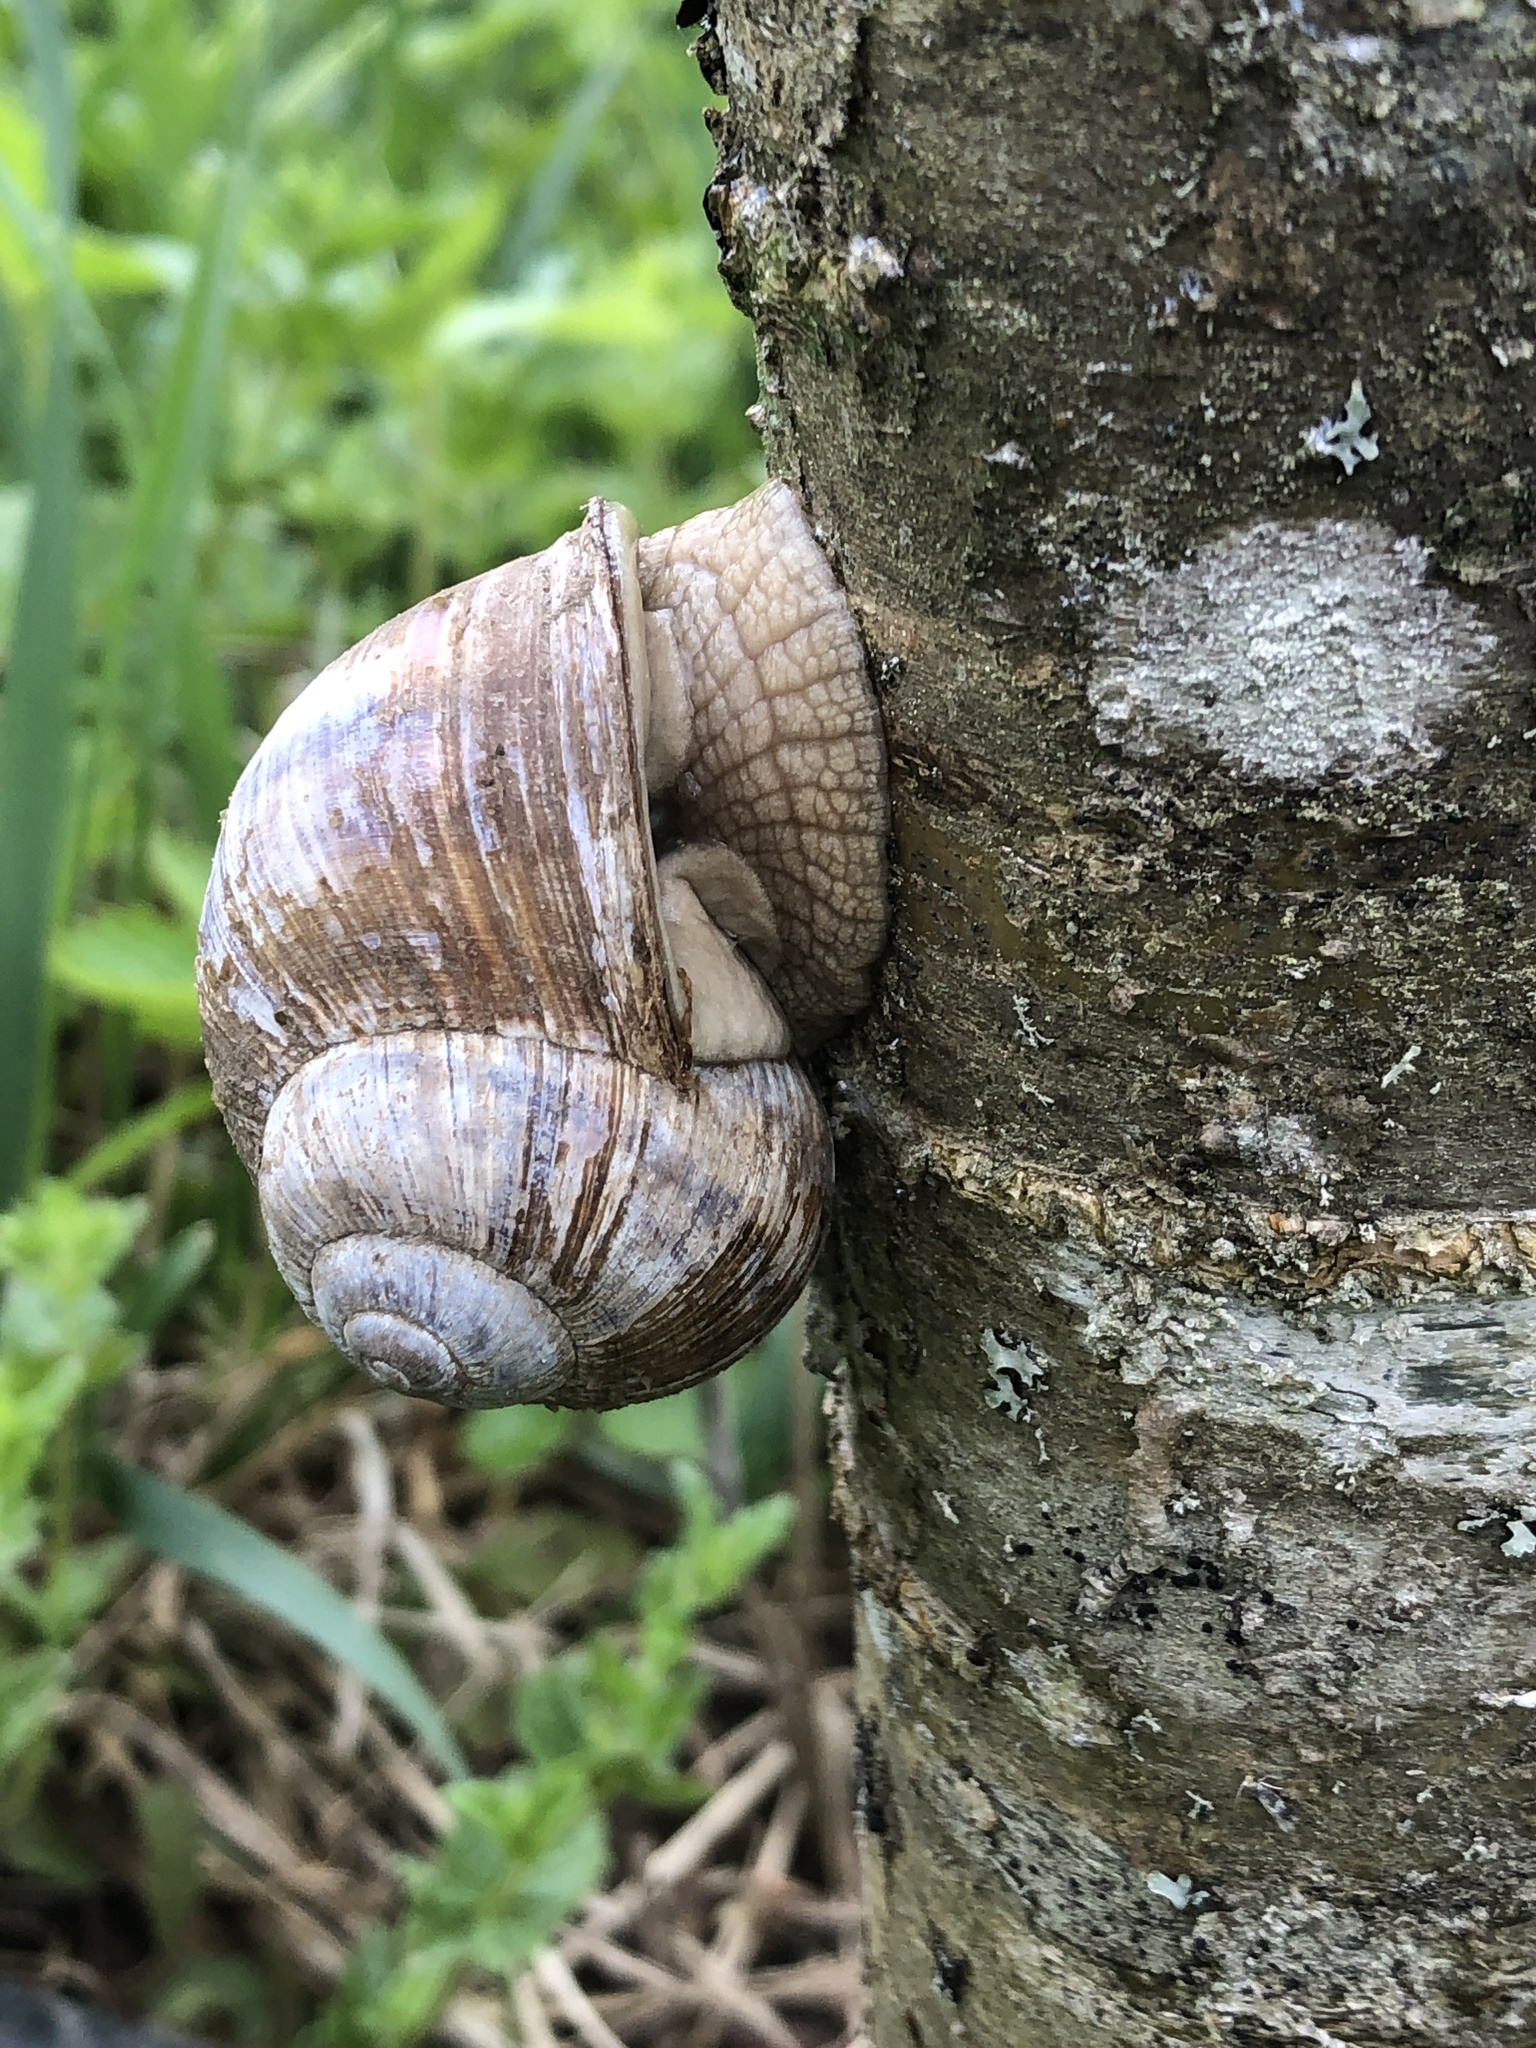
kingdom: Animalia
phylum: Mollusca
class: Gastropoda
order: Stylommatophora
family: Helicidae
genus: Helix
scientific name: Helix pomatia
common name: Roman snail
